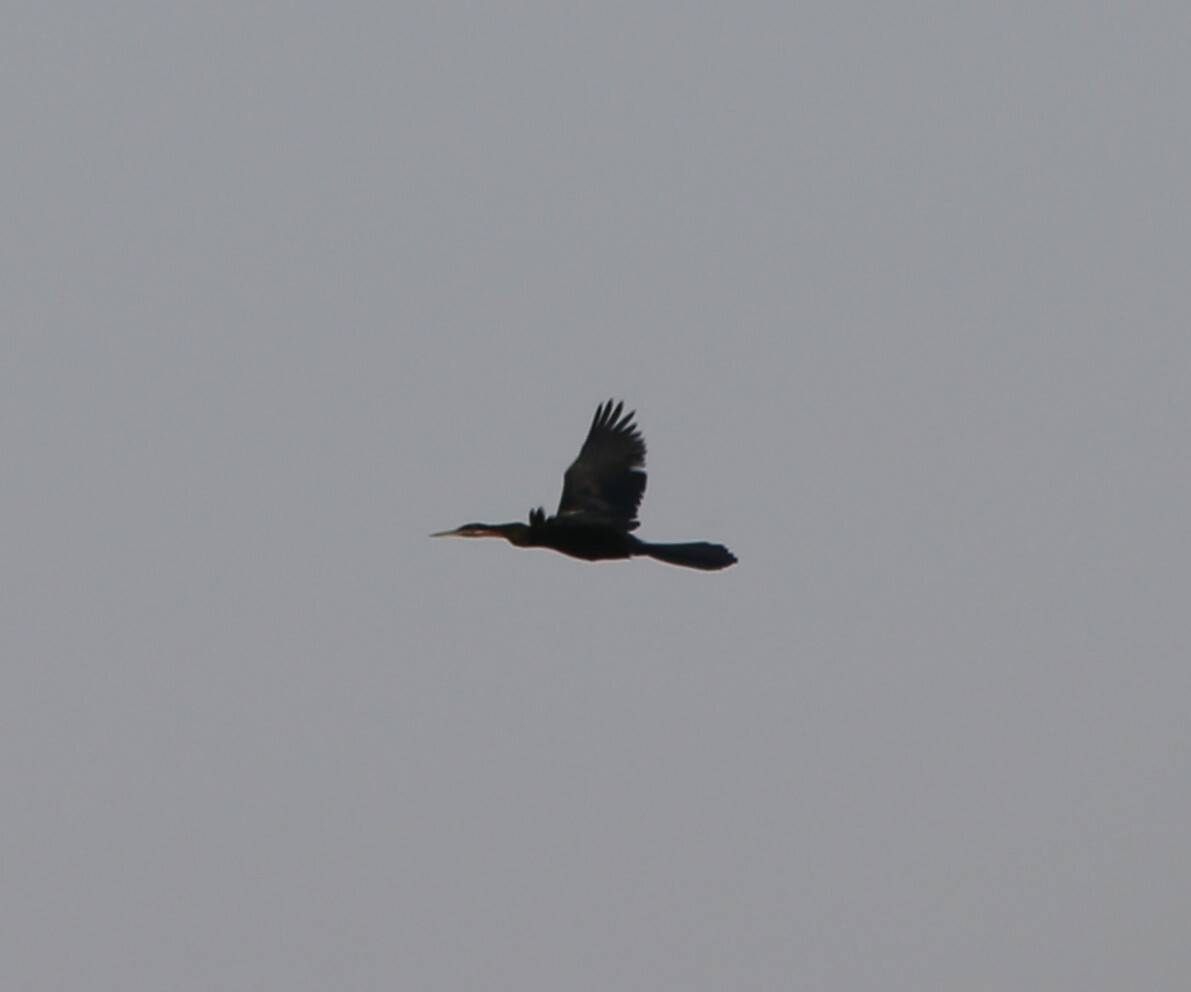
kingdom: Animalia
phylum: Chordata
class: Aves
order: Suliformes
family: Anhingidae
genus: Anhinga
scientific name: Anhinga rufa
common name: African darter
